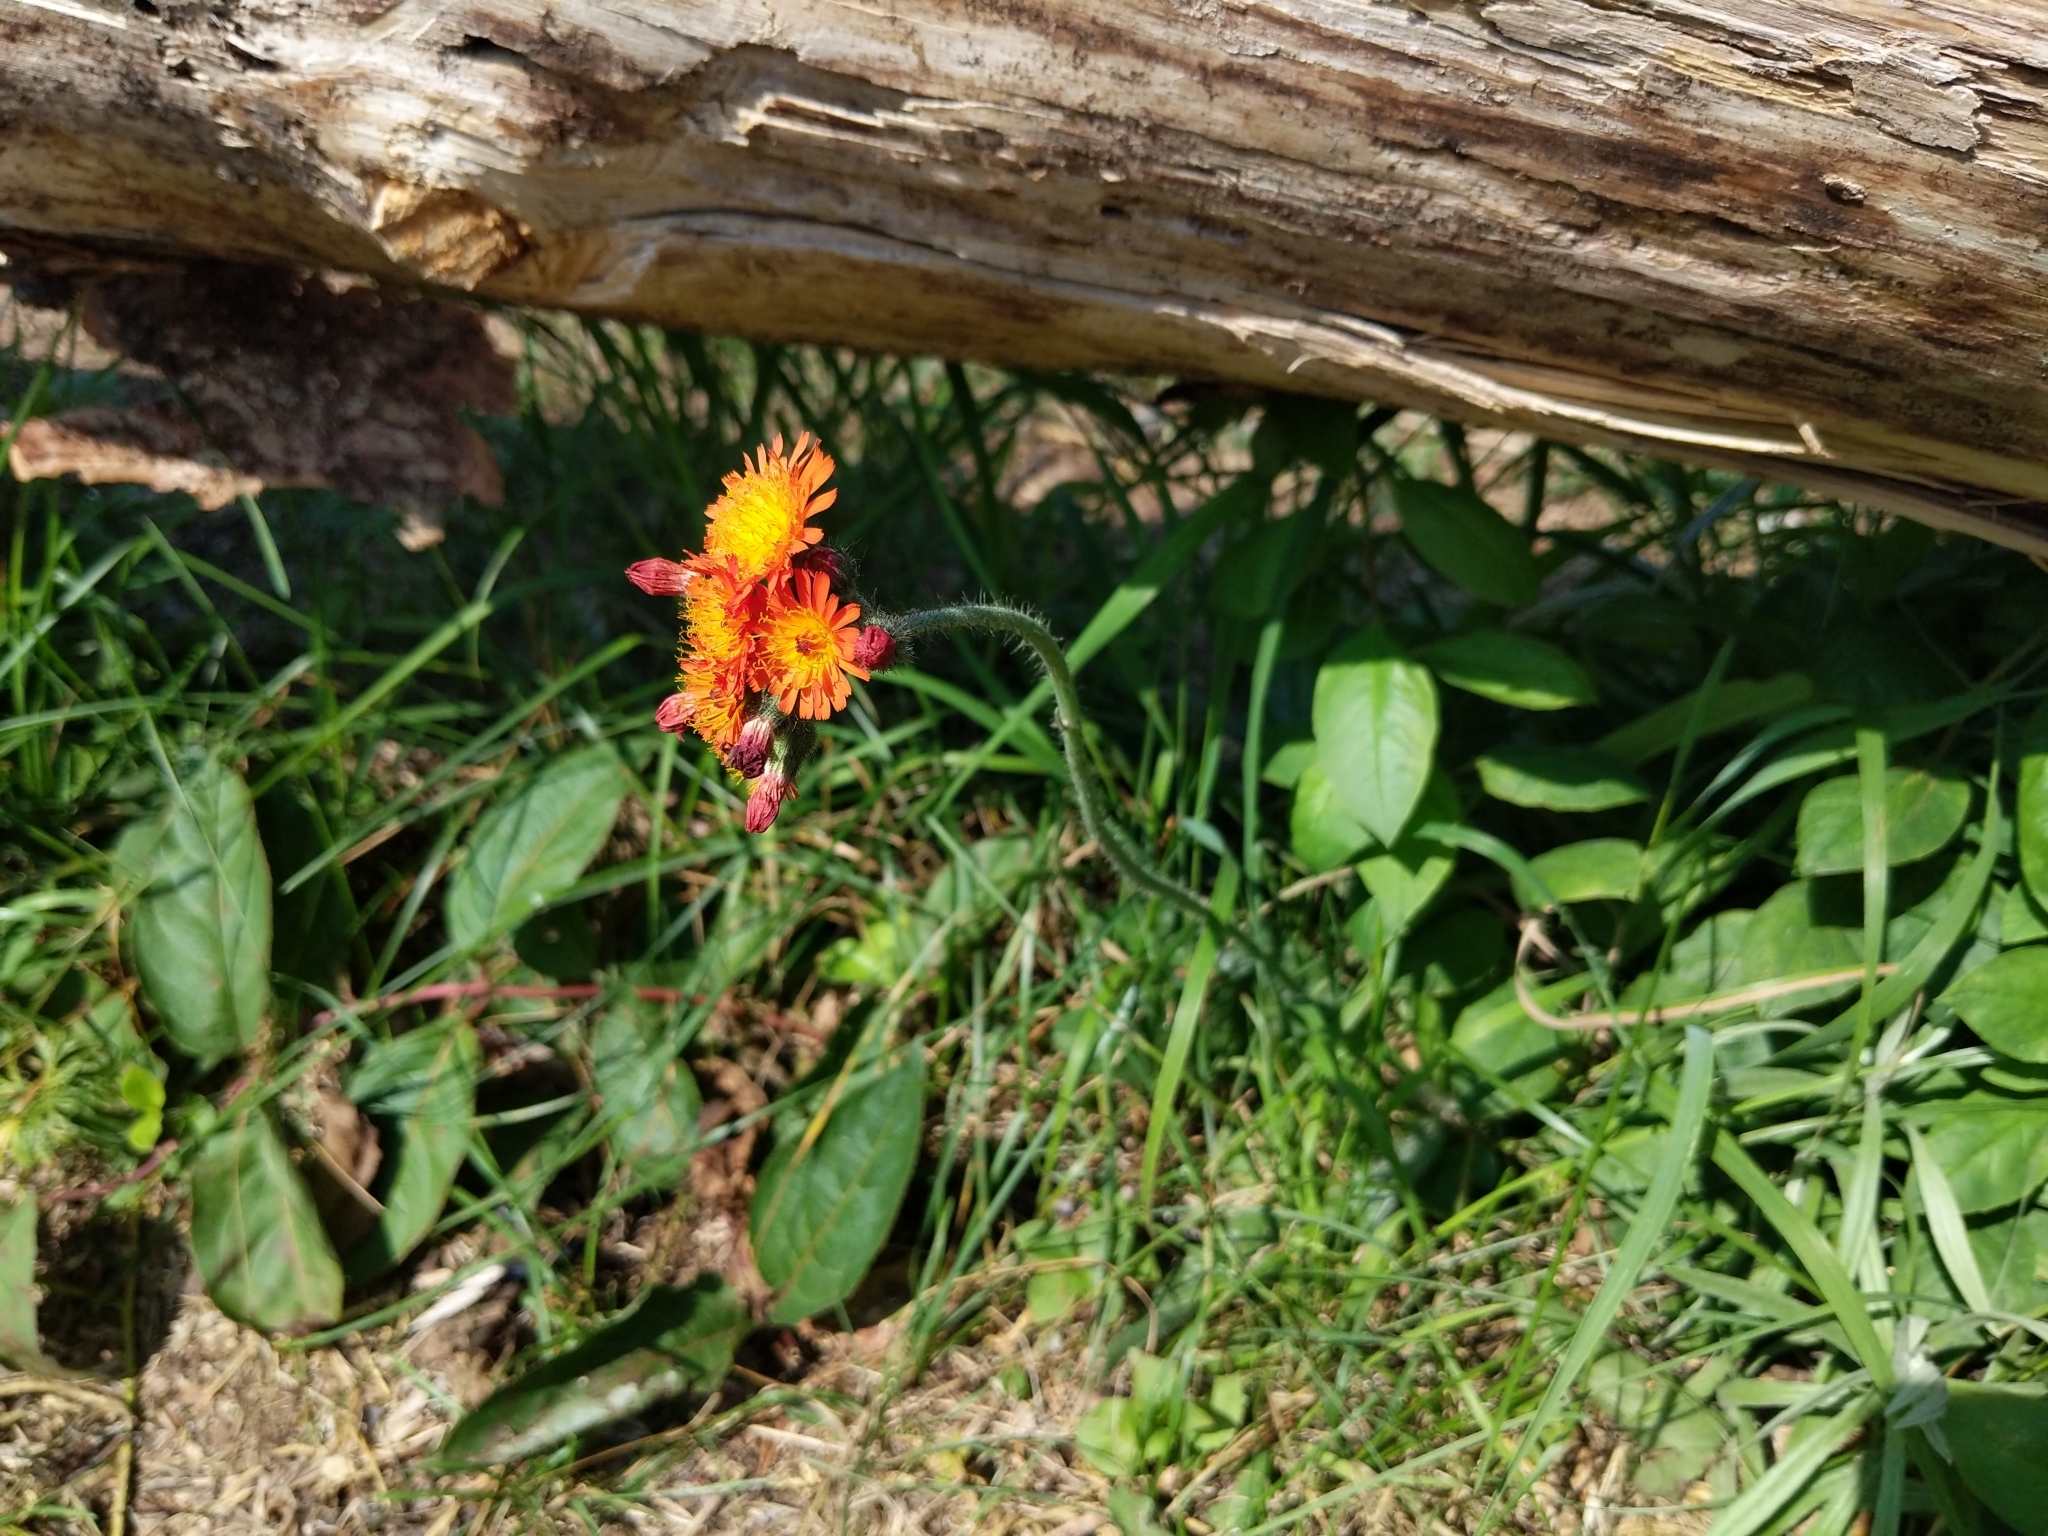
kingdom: Plantae
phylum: Tracheophyta
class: Magnoliopsida
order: Asterales
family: Asteraceae
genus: Pilosella
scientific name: Pilosella aurantiaca
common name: Fox-and-cubs
